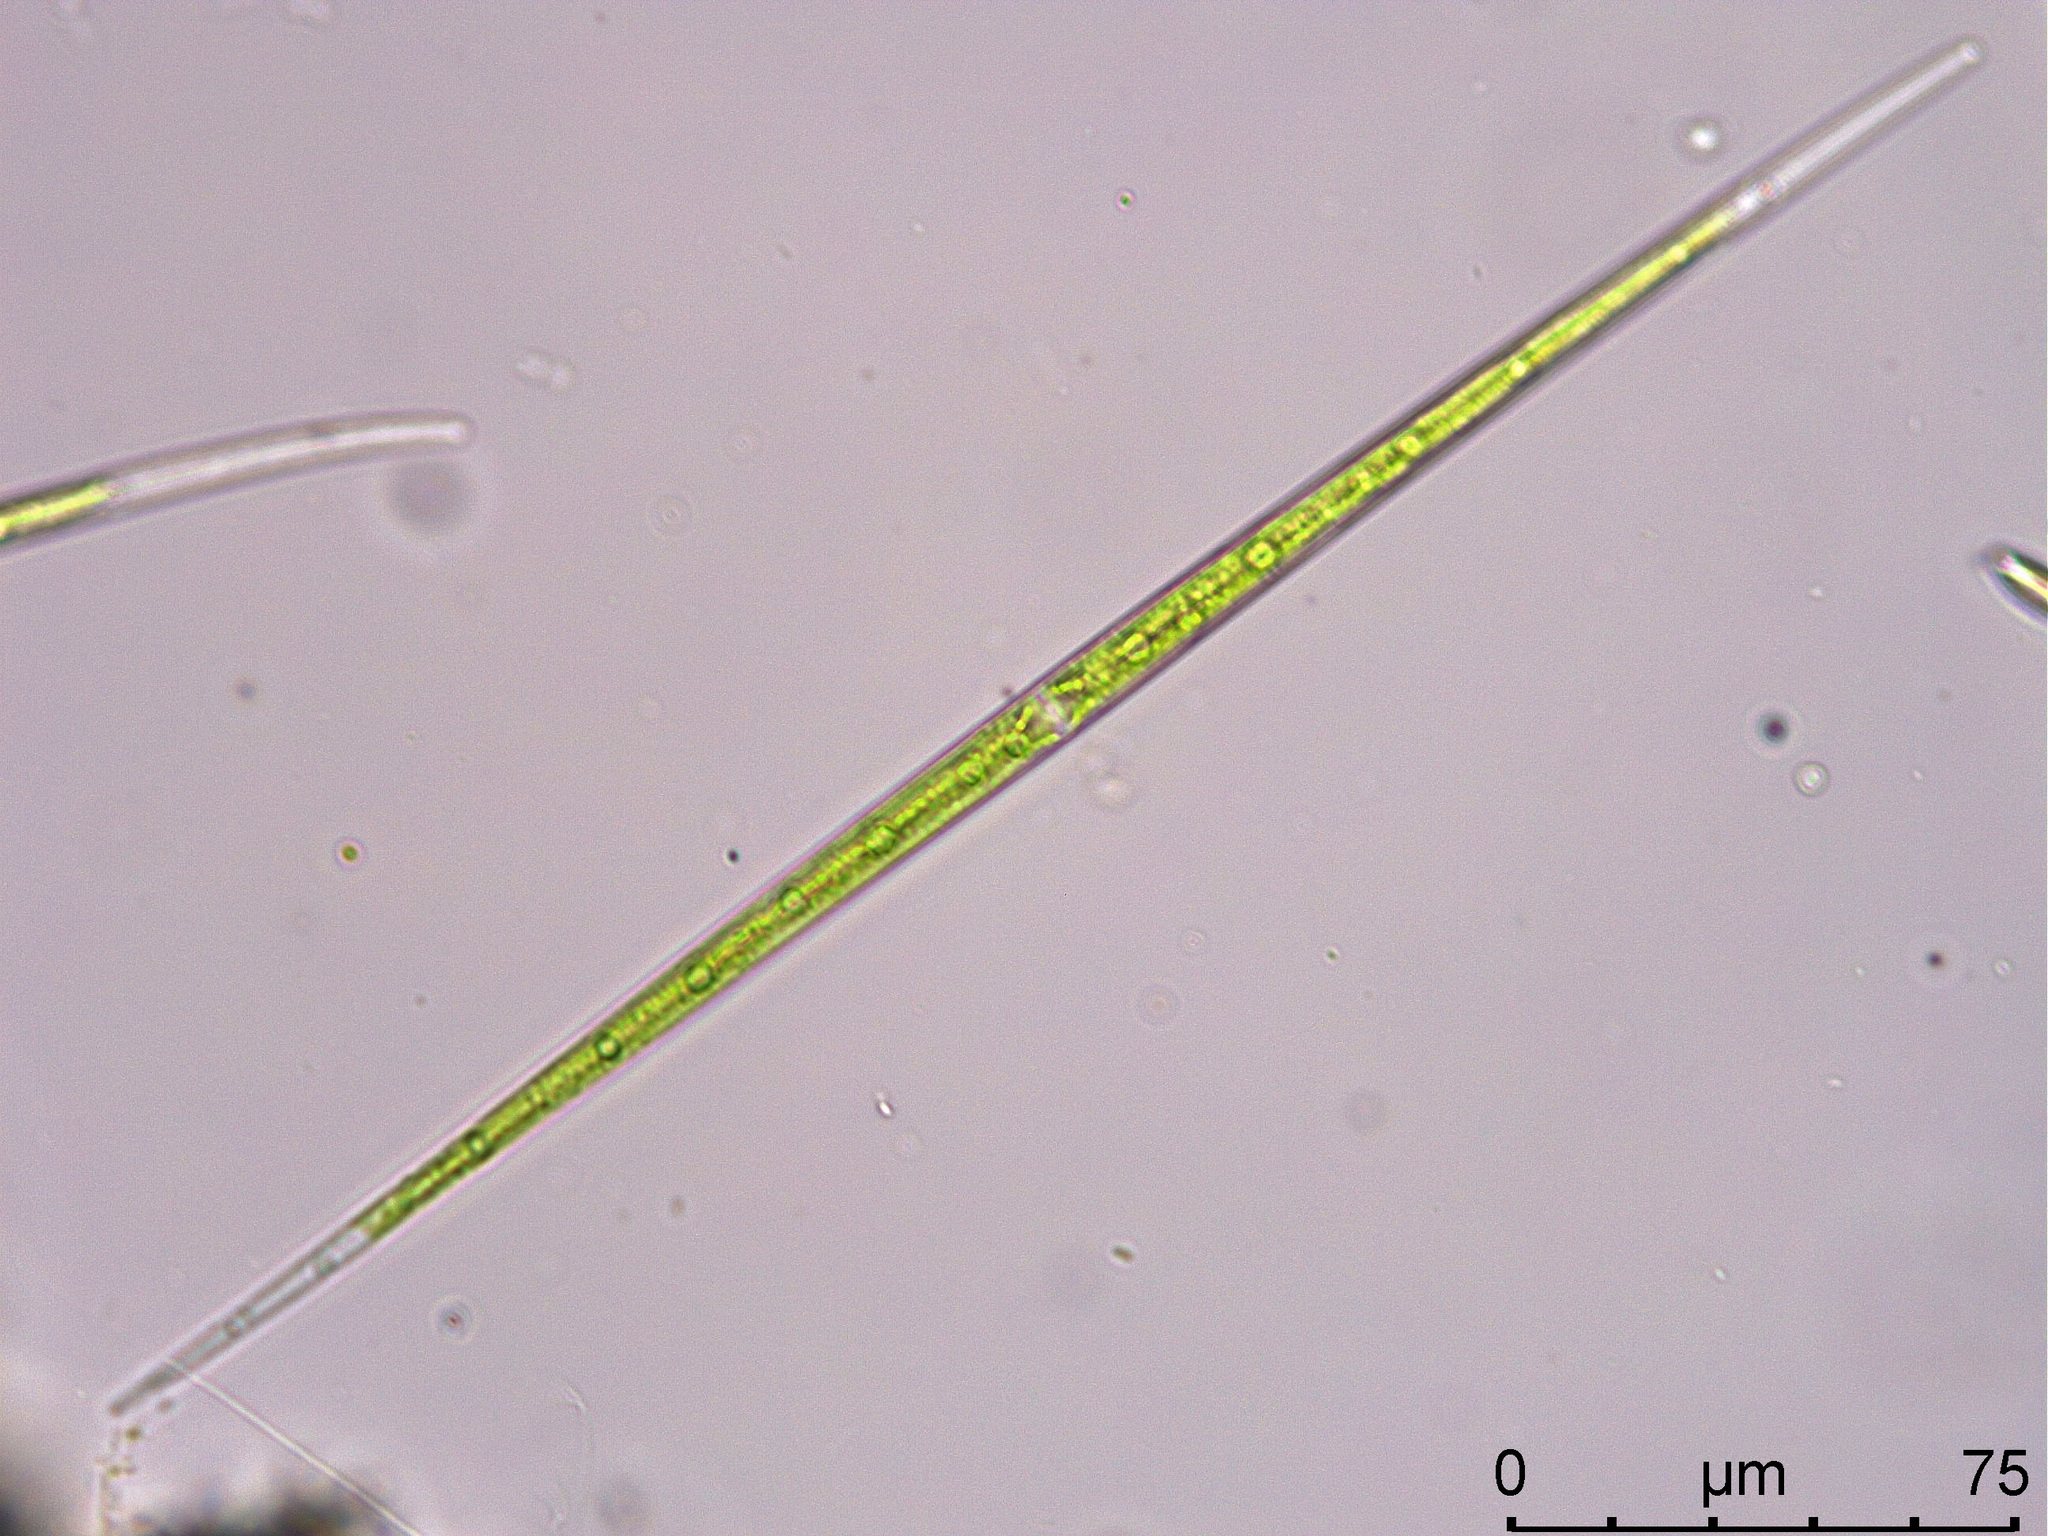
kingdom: Plantae
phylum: Charophyta
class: Zygnematophyceae
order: Zygnematales
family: Closteriaceae
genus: Closterium
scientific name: Closterium limneticum
